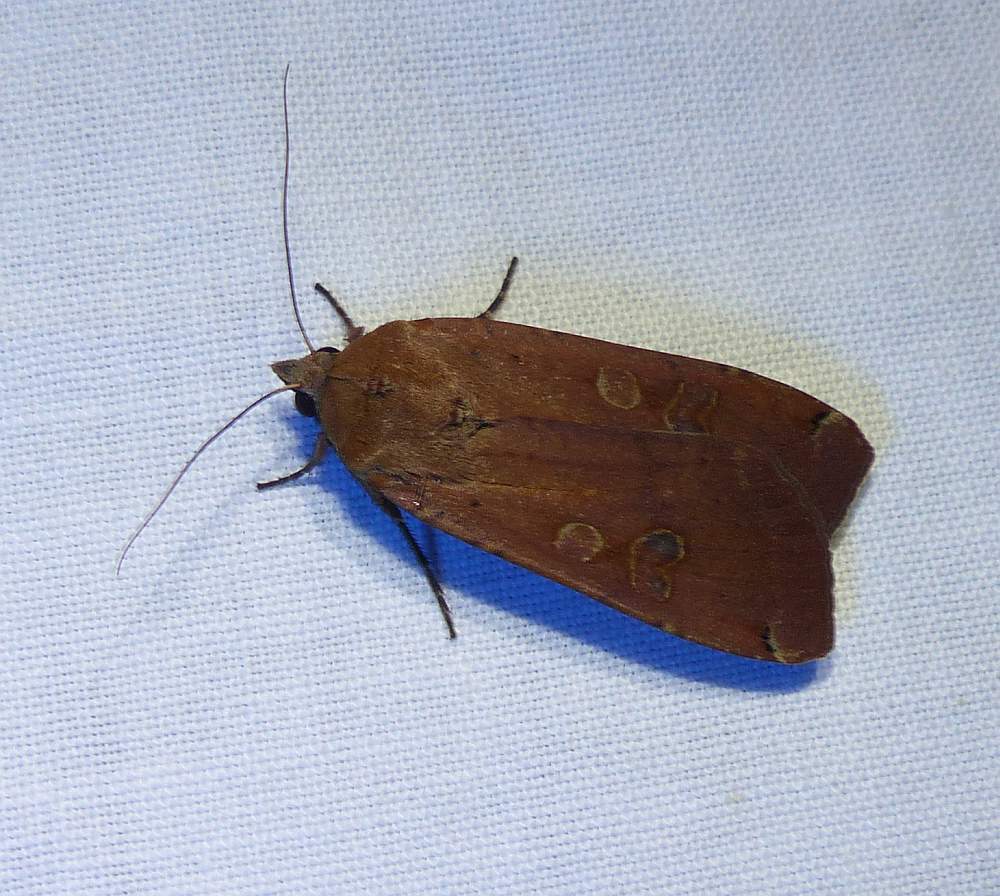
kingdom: Animalia
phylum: Arthropoda
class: Insecta
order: Lepidoptera
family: Noctuidae
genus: Noctua
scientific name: Noctua pronuba
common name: Large yellow underwing
